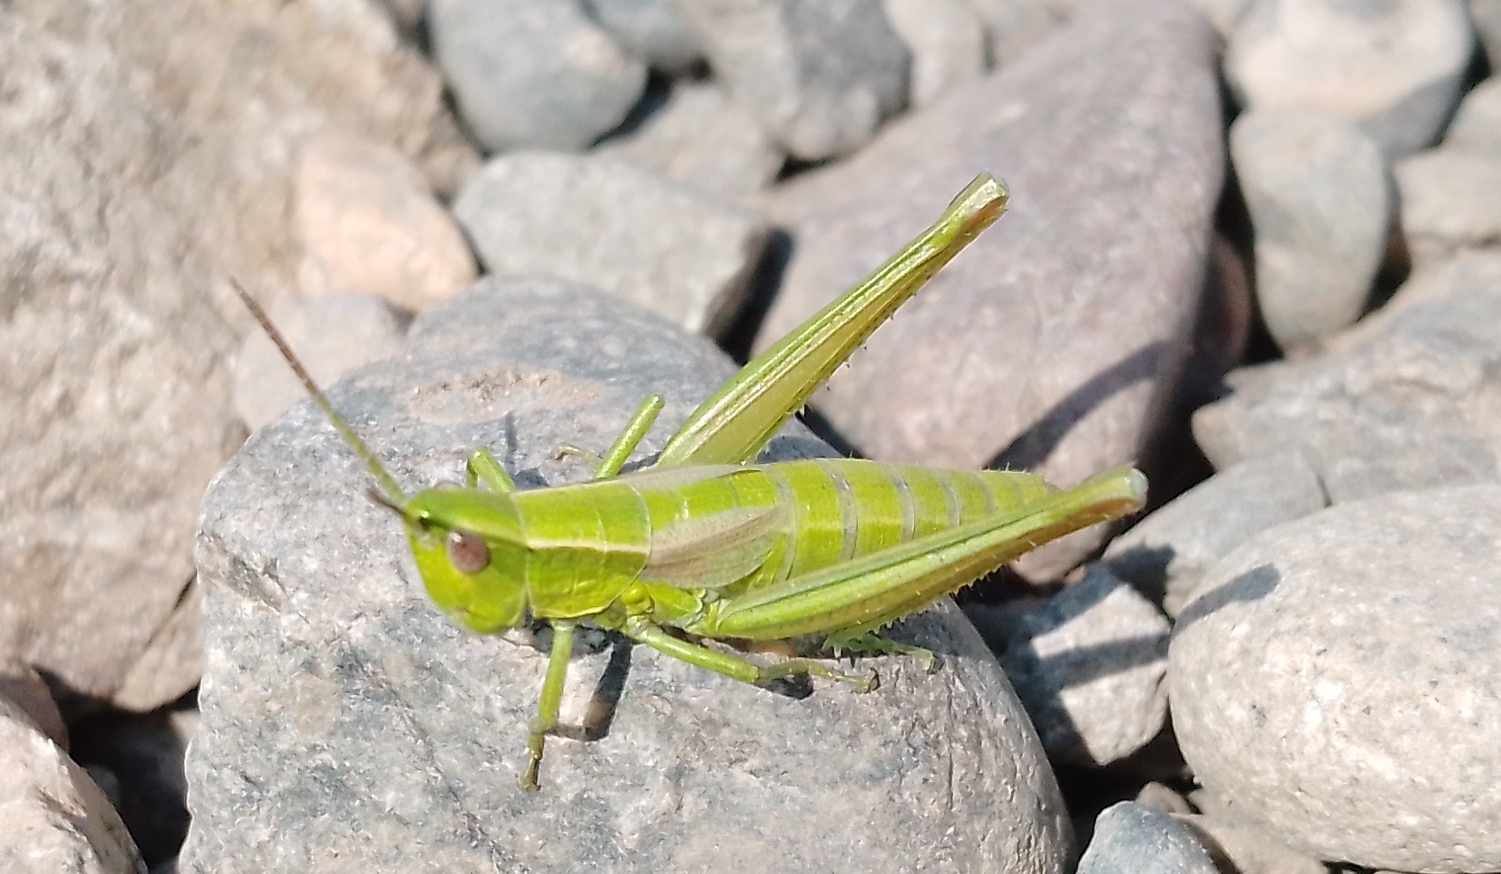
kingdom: Animalia
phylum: Arthropoda
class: Insecta
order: Orthoptera
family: Acrididae
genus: Euthystira
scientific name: Euthystira brachyptera
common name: Small gold grasshopper
